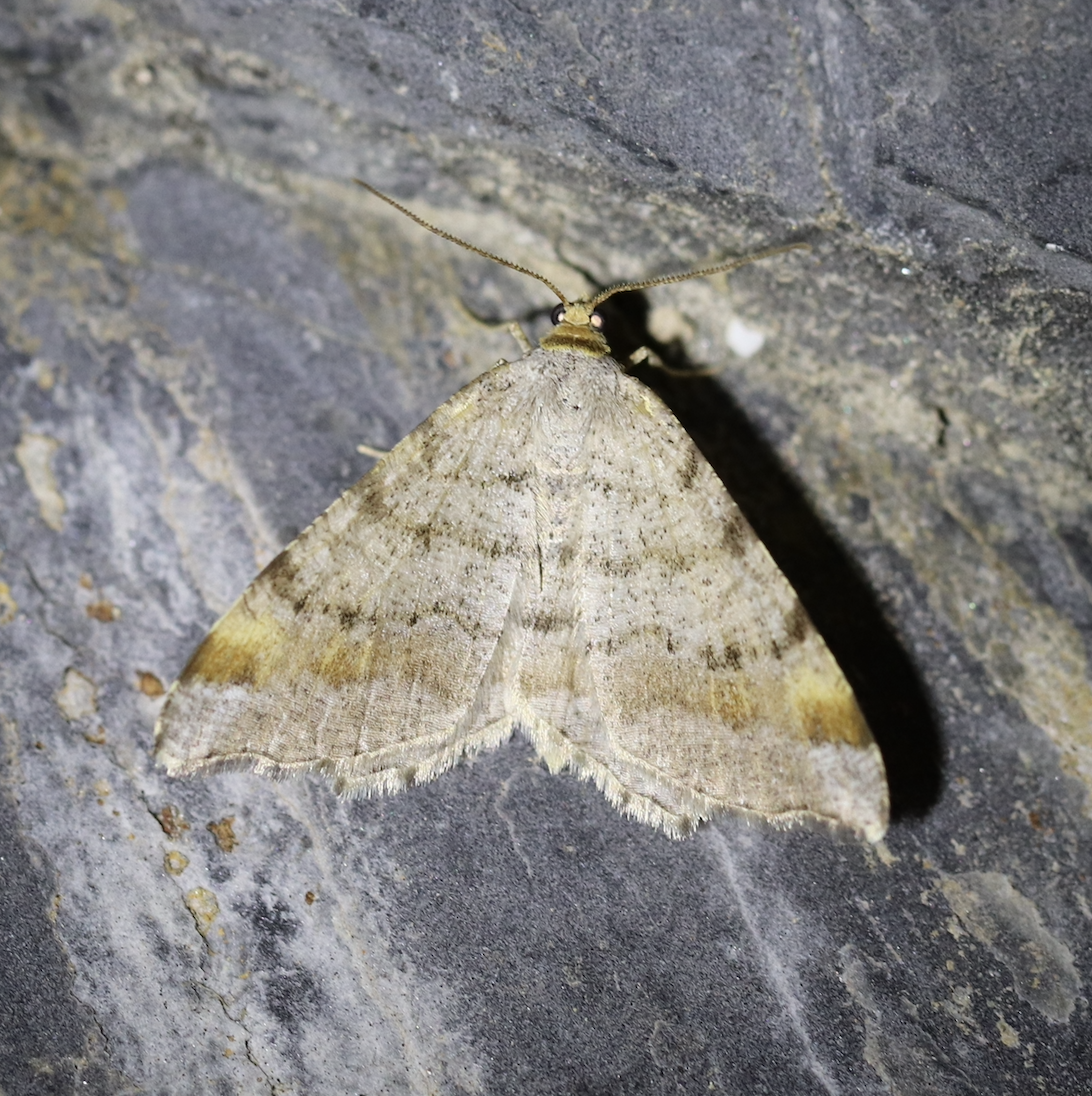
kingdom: Animalia
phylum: Arthropoda
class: Insecta
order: Lepidoptera
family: Geometridae
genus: Macaria
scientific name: Macaria liturata
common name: Tawny-barred angle
